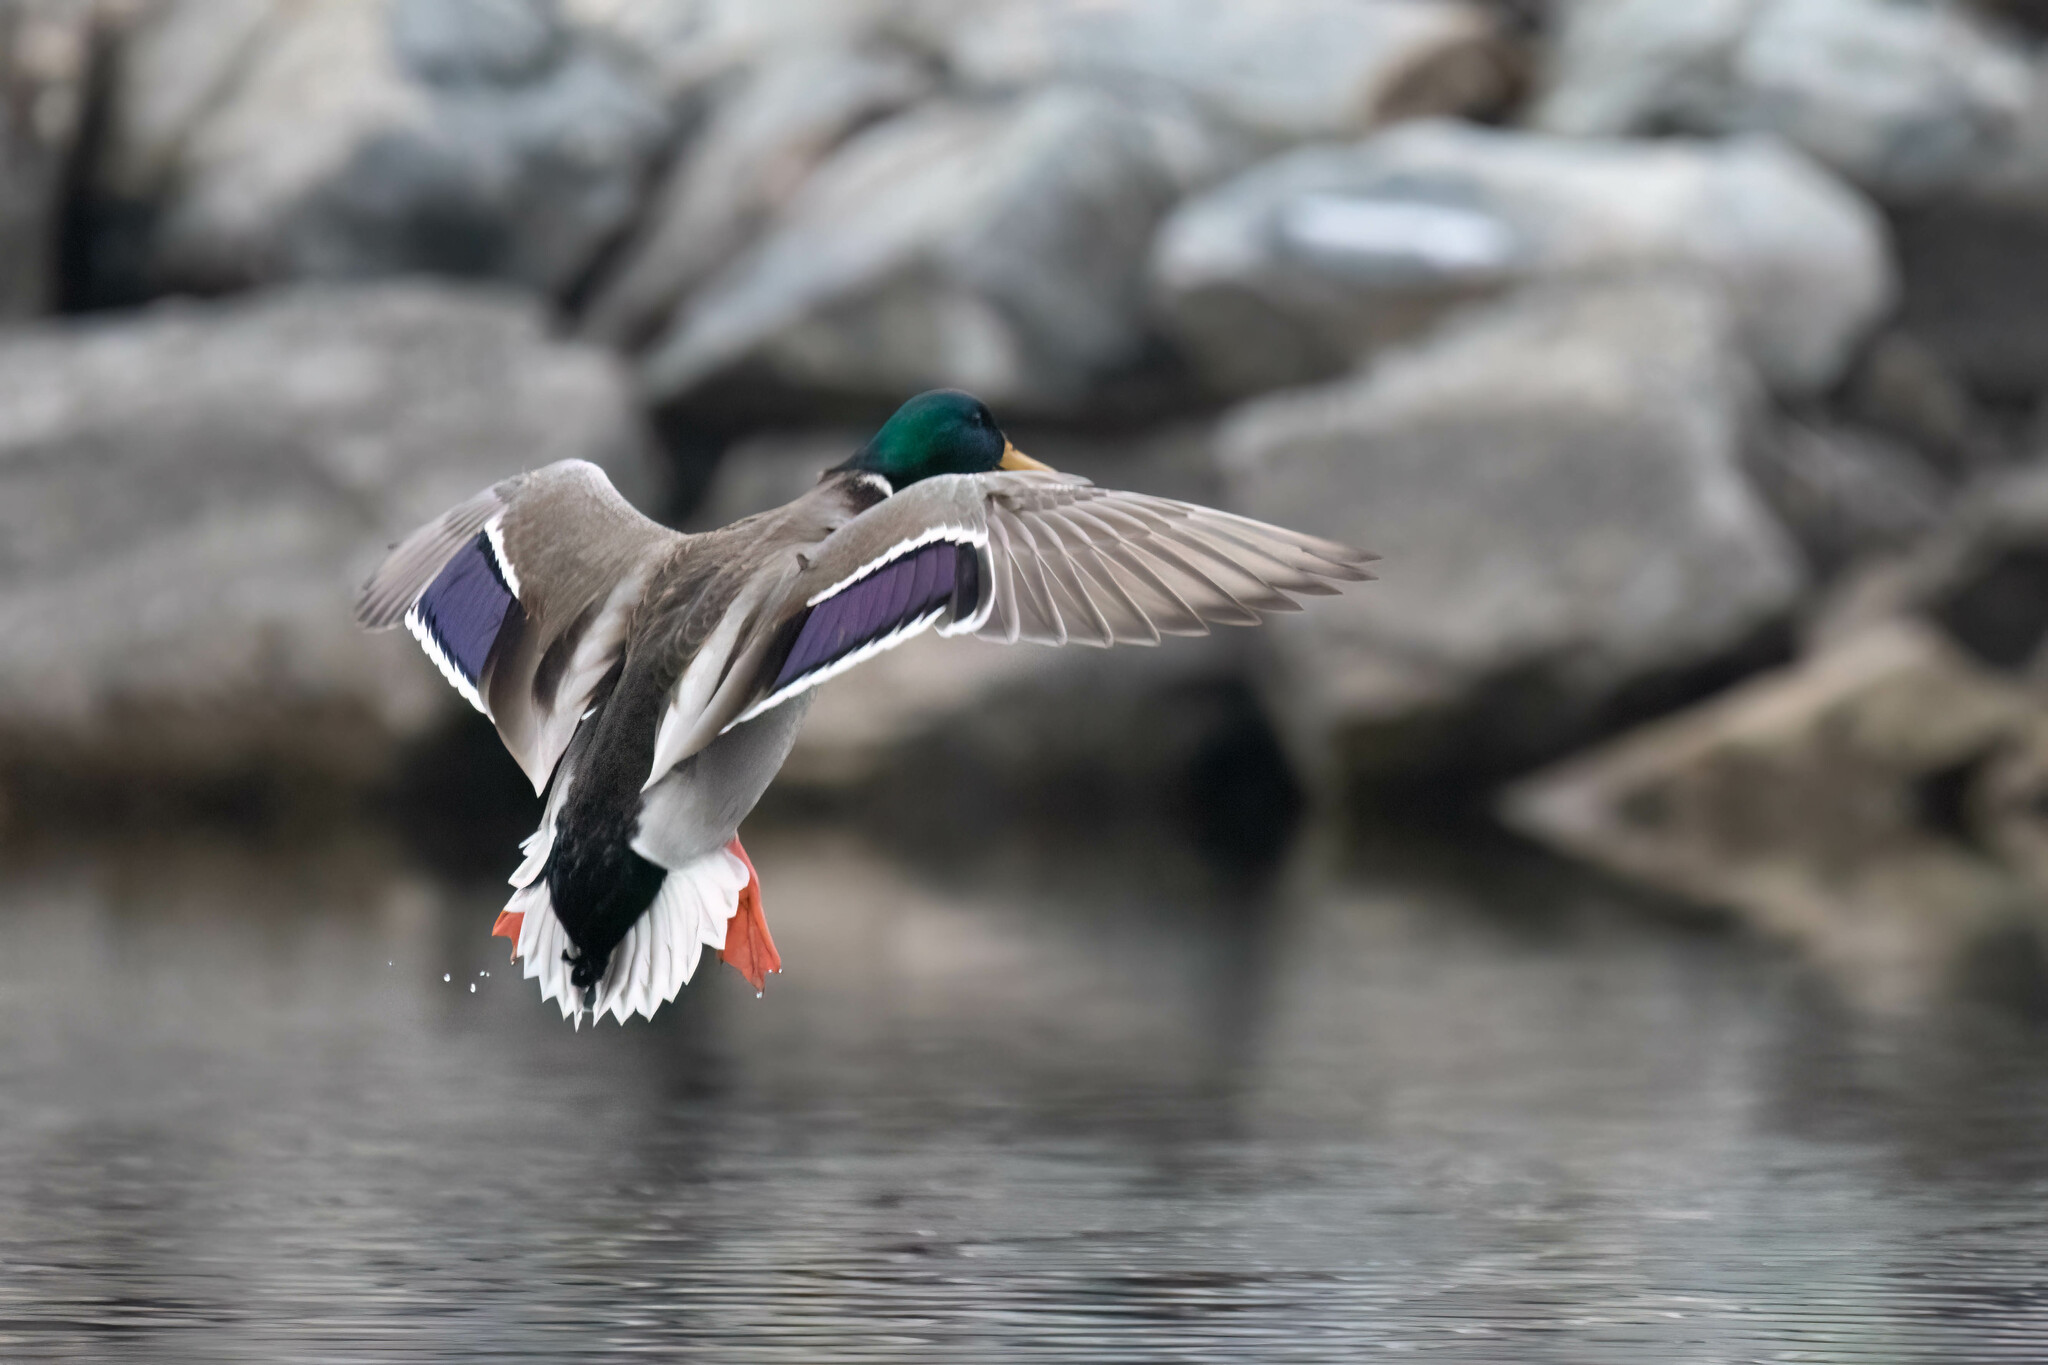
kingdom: Animalia
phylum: Chordata
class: Aves
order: Anseriformes
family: Anatidae
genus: Anas
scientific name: Anas platyrhynchos
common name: Mallard
